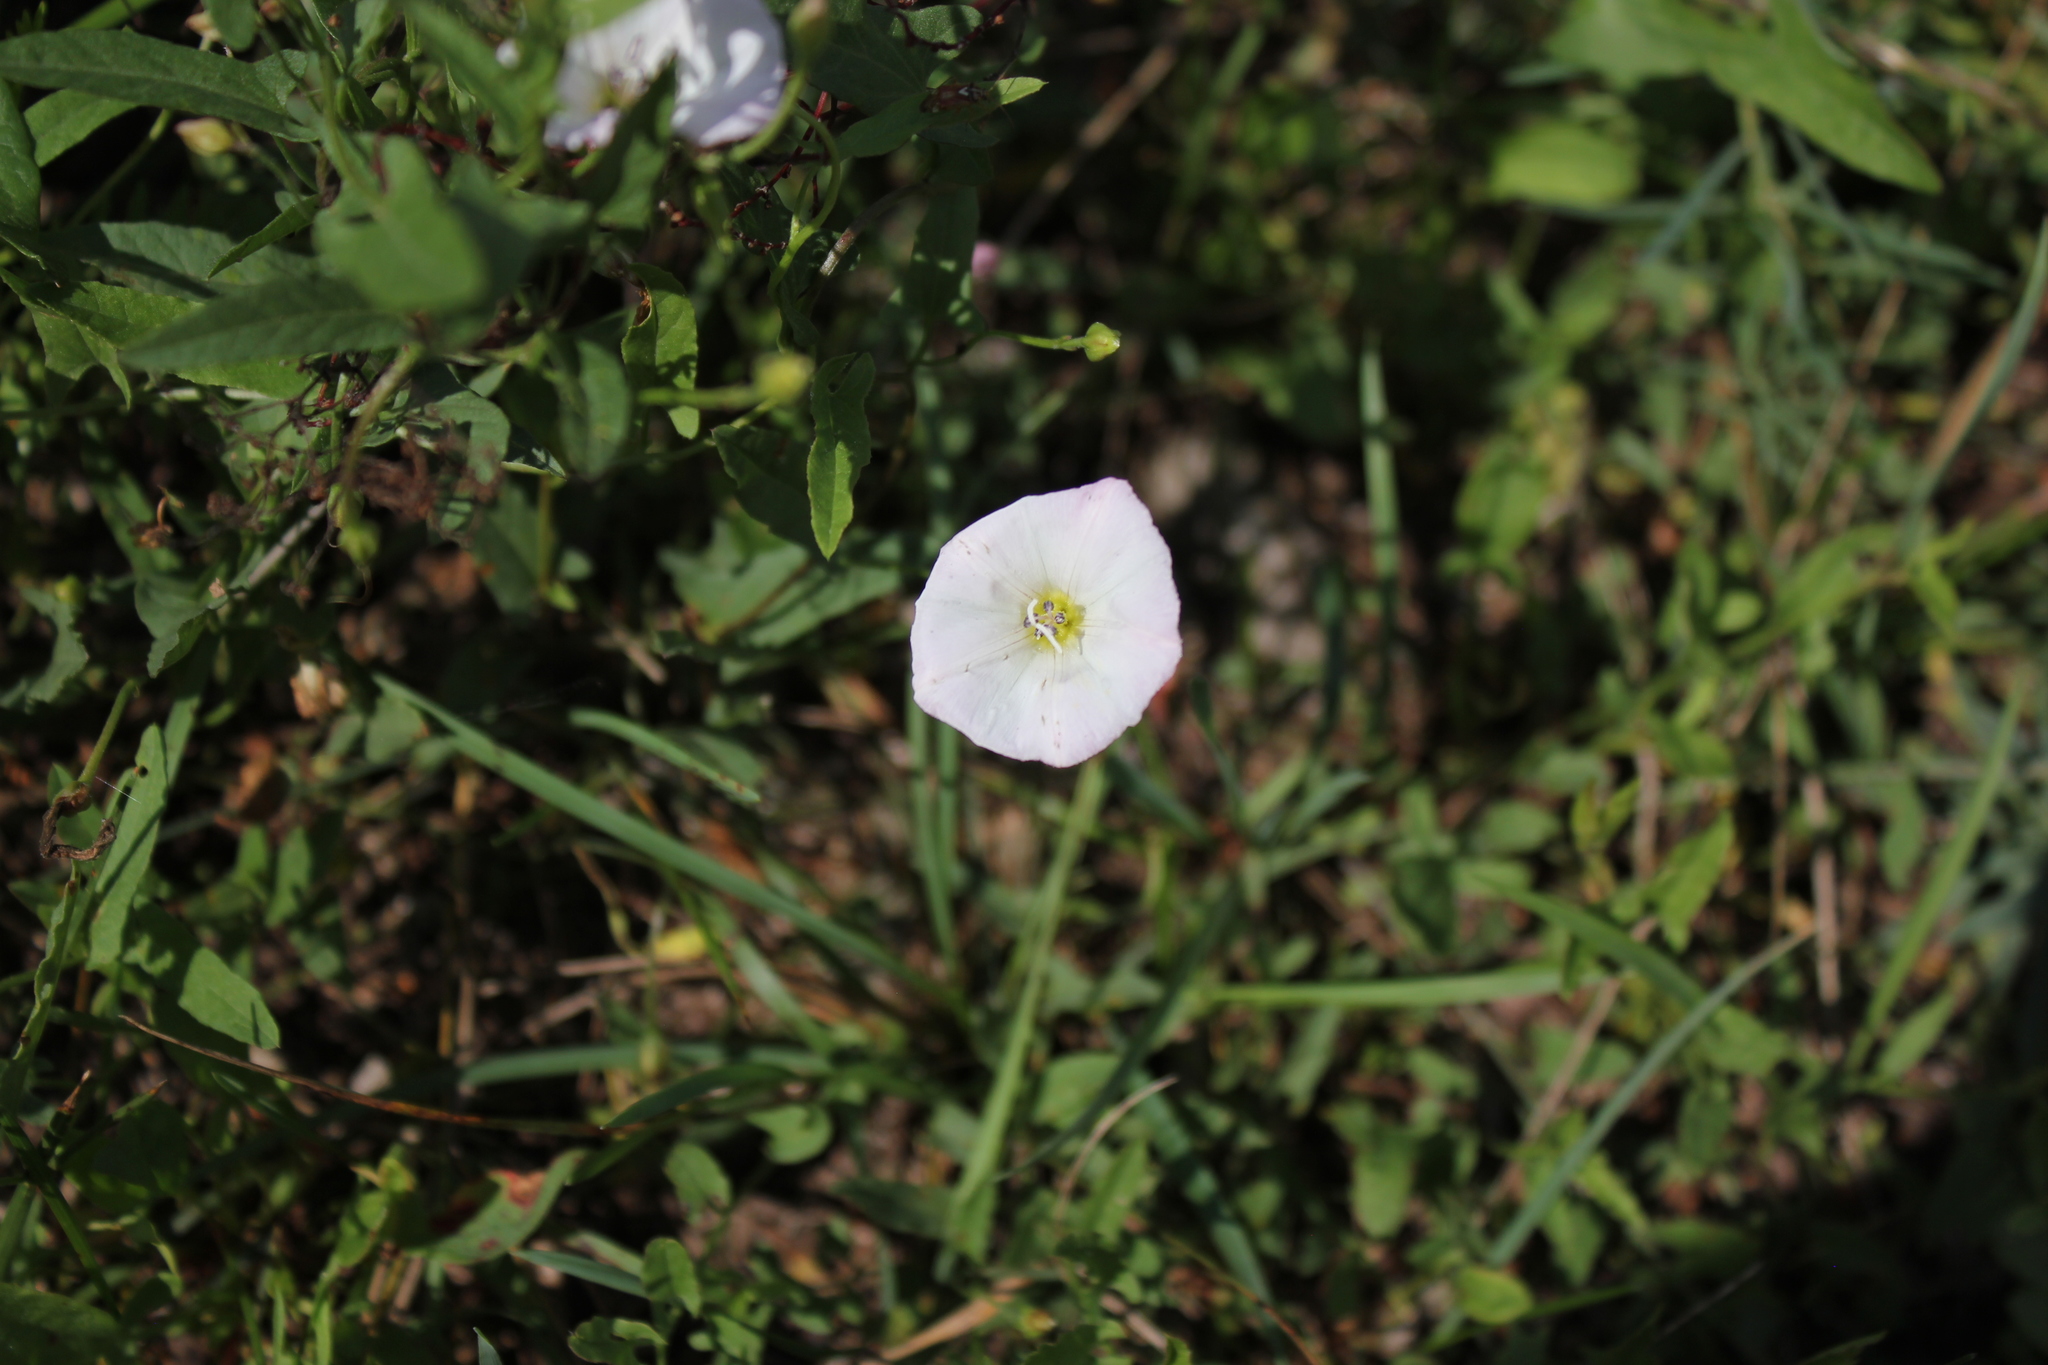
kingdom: Plantae
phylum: Tracheophyta
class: Magnoliopsida
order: Solanales
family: Convolvulaceae
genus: Convolvulus
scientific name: Convolvulus arvensis
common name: Field bindweed
